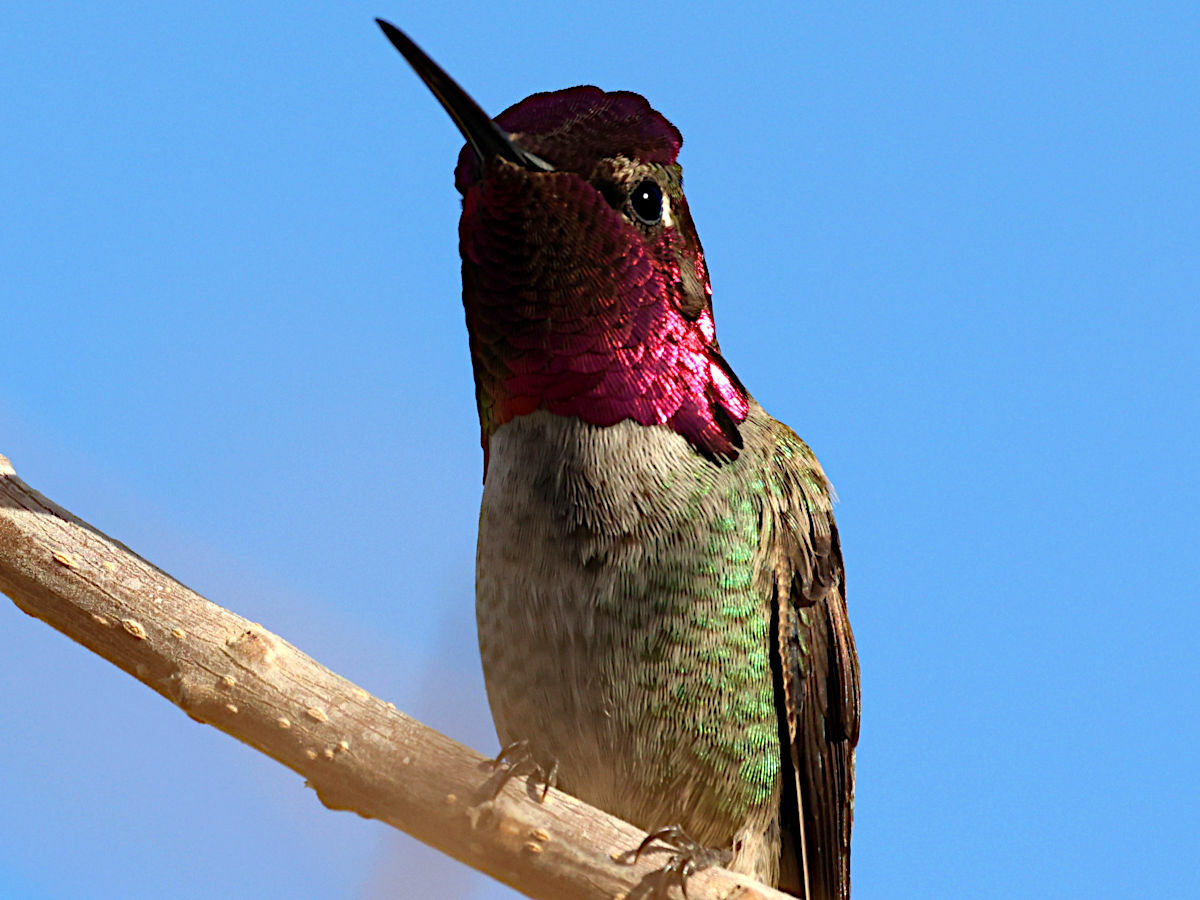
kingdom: Animalia
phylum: Chordata
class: Aves
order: Apodiformes
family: Trochilidae
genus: Calypte
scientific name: Calypte anna
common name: Anna's hummingbird
